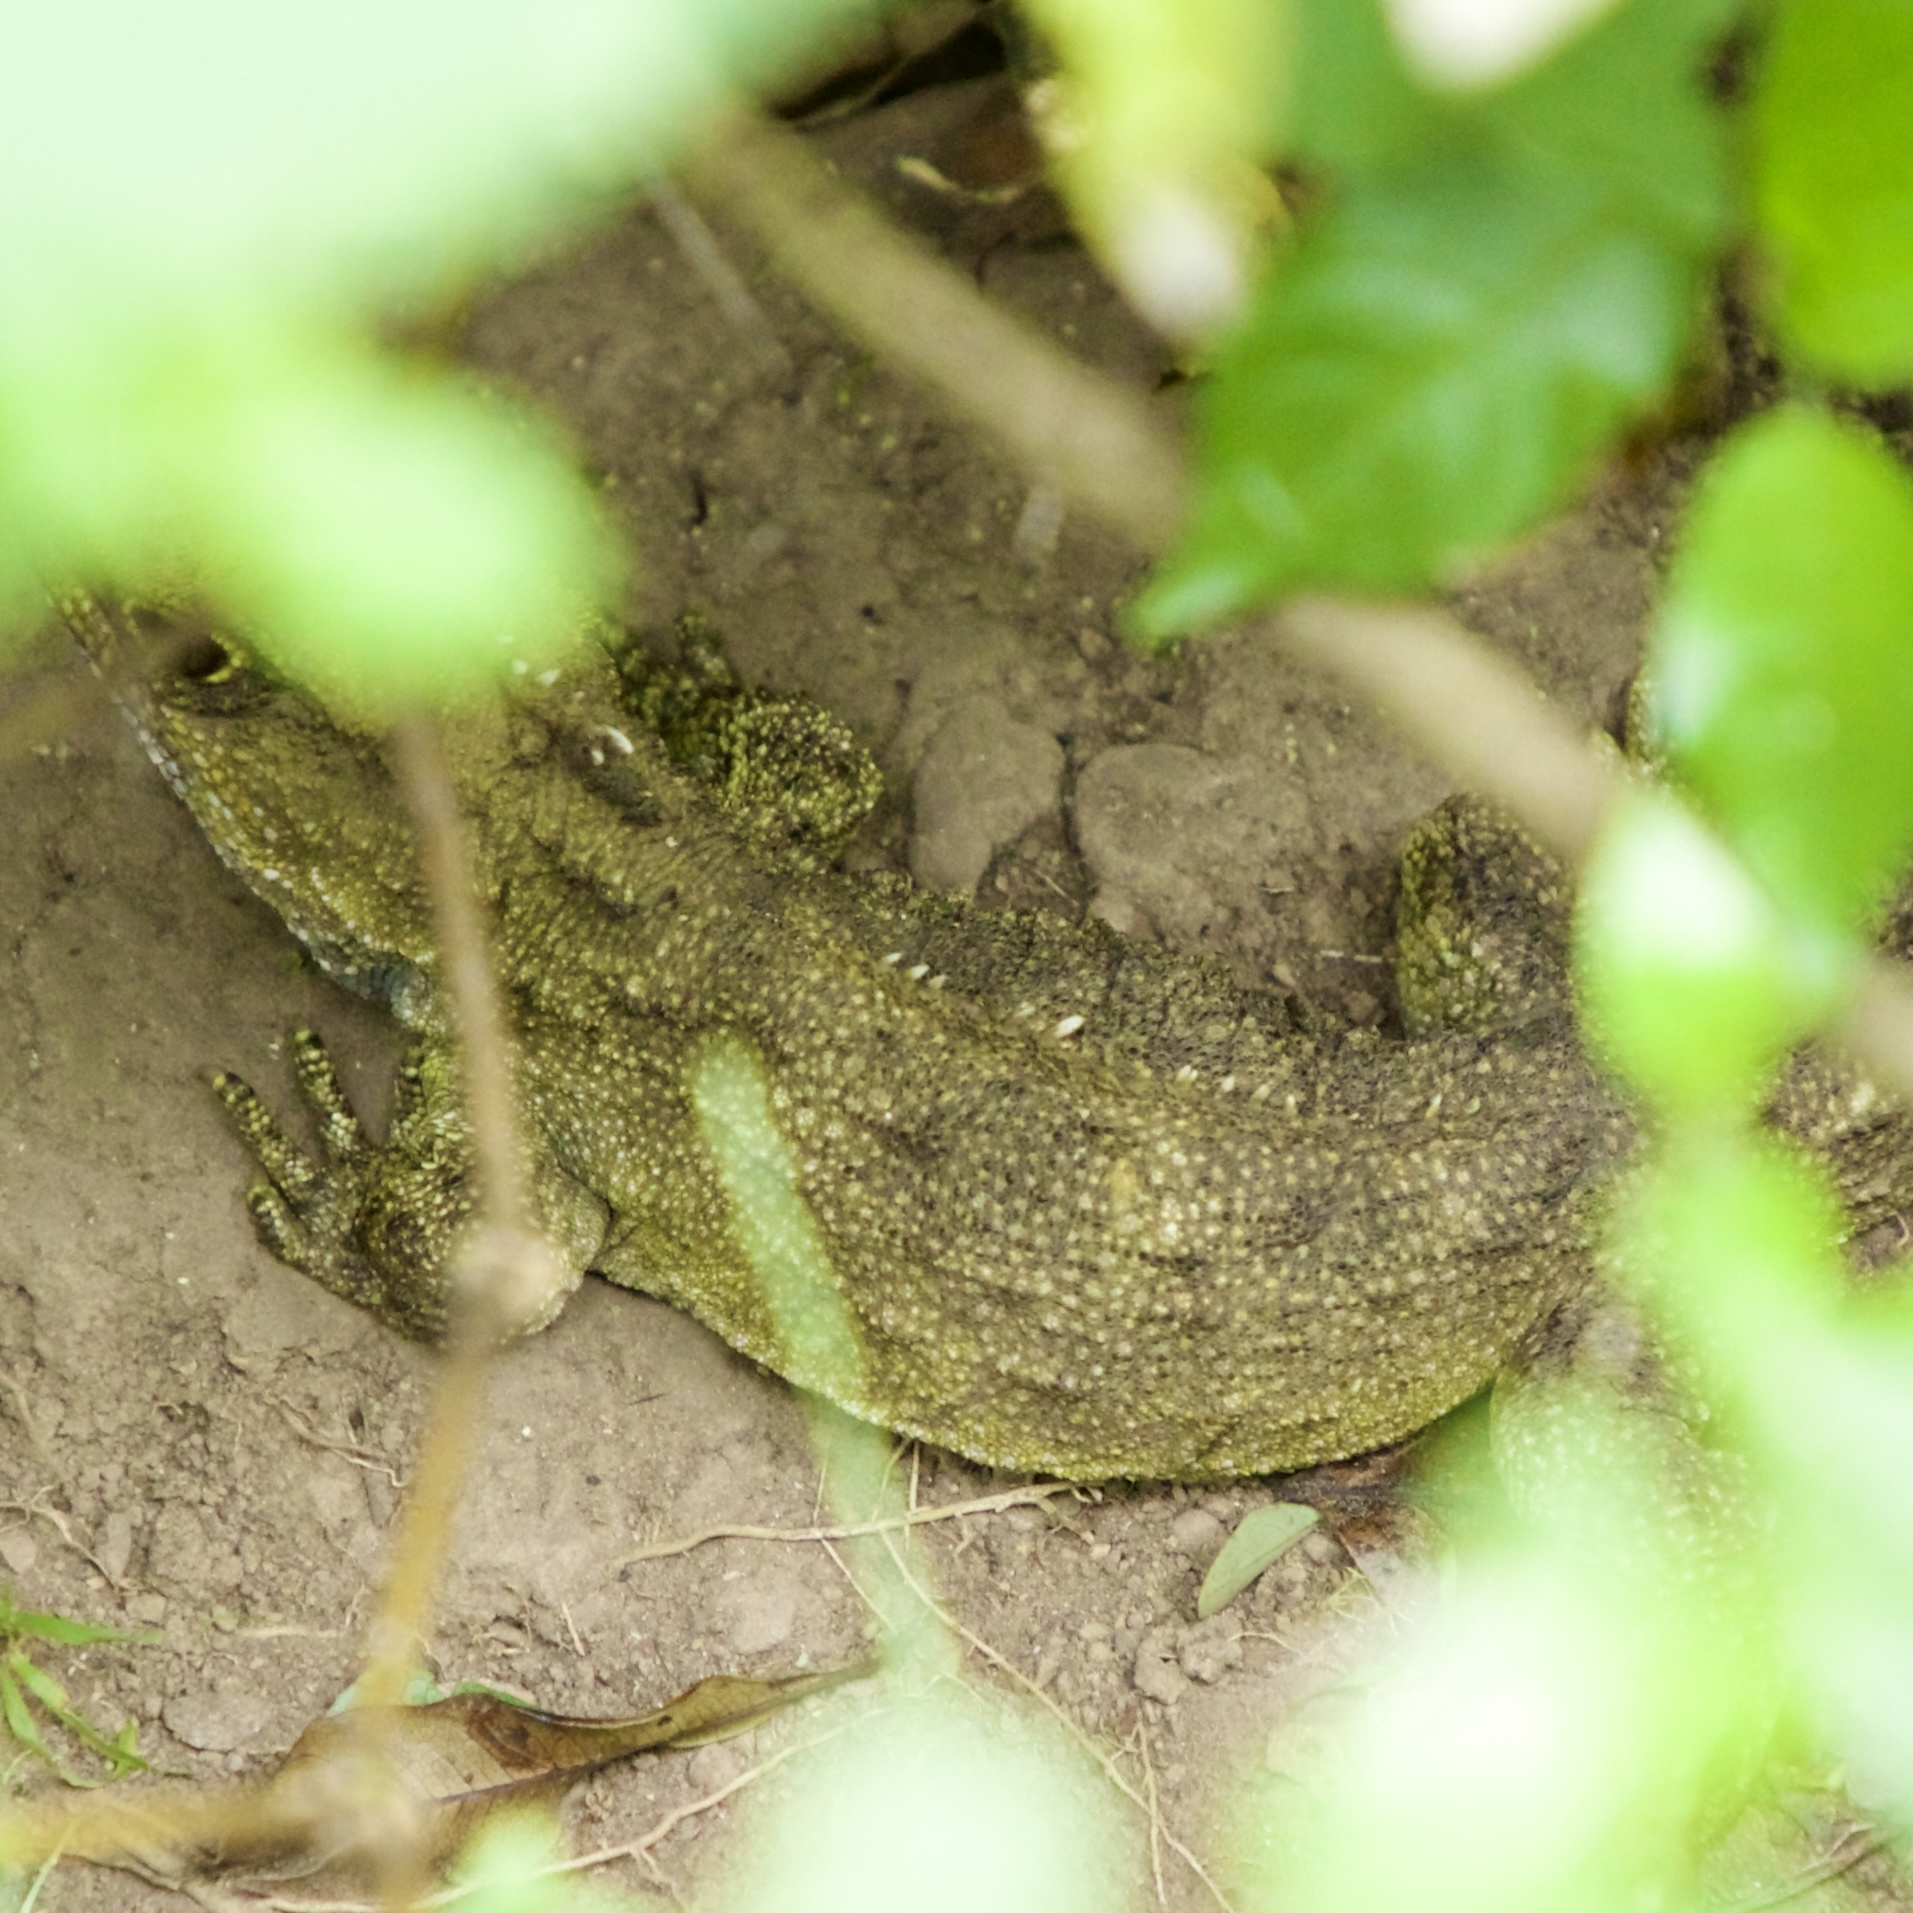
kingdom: Animalia
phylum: Chordata
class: Sphenodontia
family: Sphenodontidae
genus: Sphenodon
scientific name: Sphenodon punctatus
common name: Tuatara
